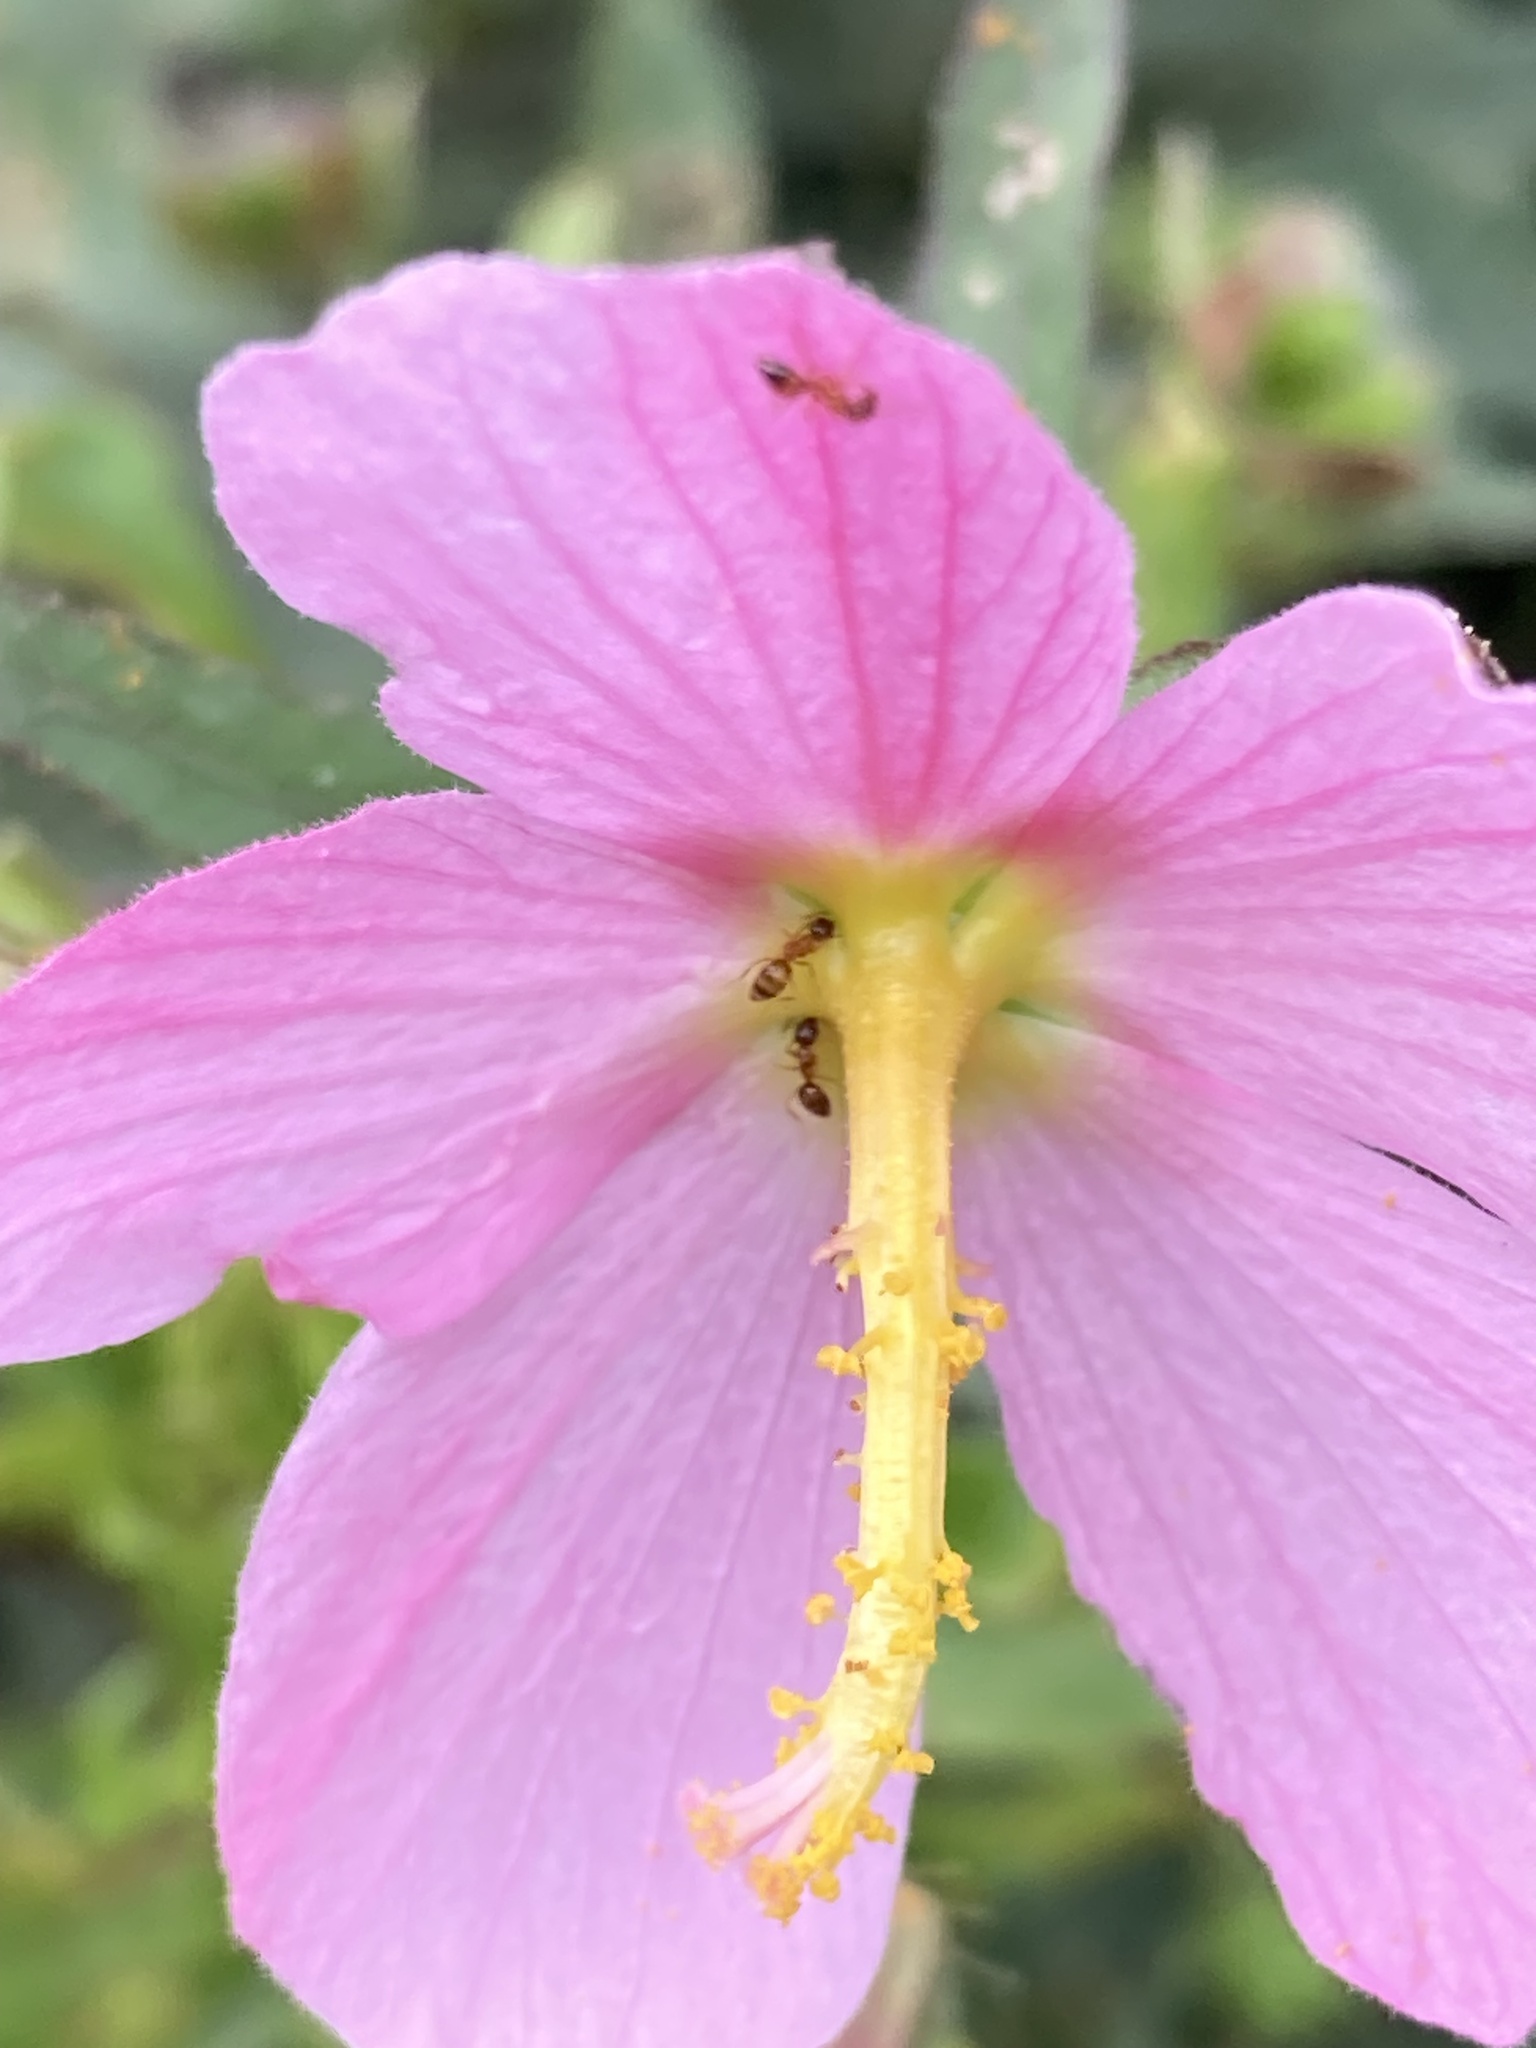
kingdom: Animalia
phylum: Arthropoda
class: Insecta
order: Hymenoptera
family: Formicidae
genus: Paratrechina
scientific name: Paratrechina flavipes
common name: Eastern asian formicine ant
